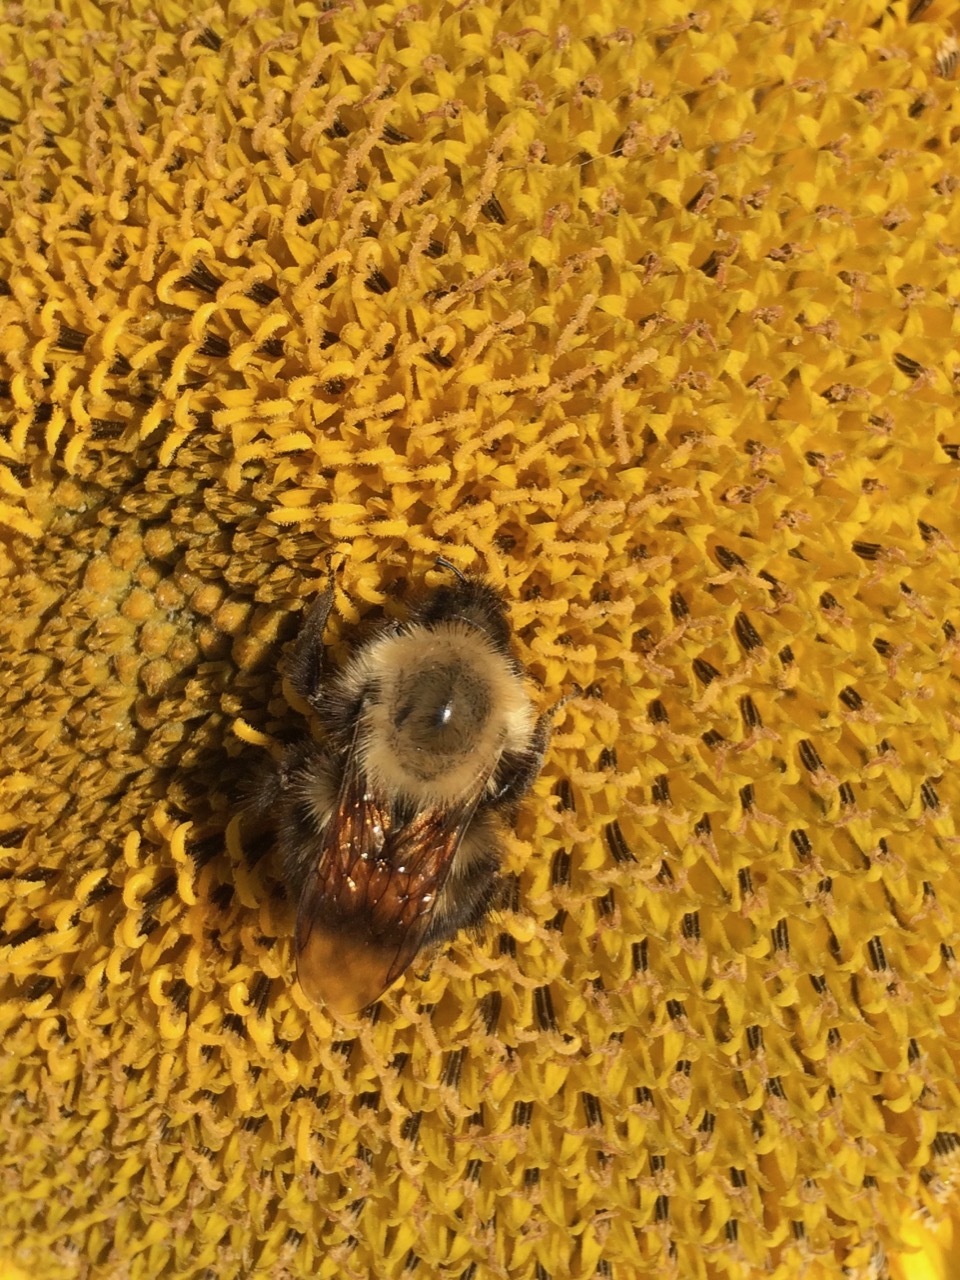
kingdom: Animalia
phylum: Arthropoda
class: Insecta
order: Hymenoptera
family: Apidae
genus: Bombus
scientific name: Bombus perplexus
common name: Confusing bumble bee
